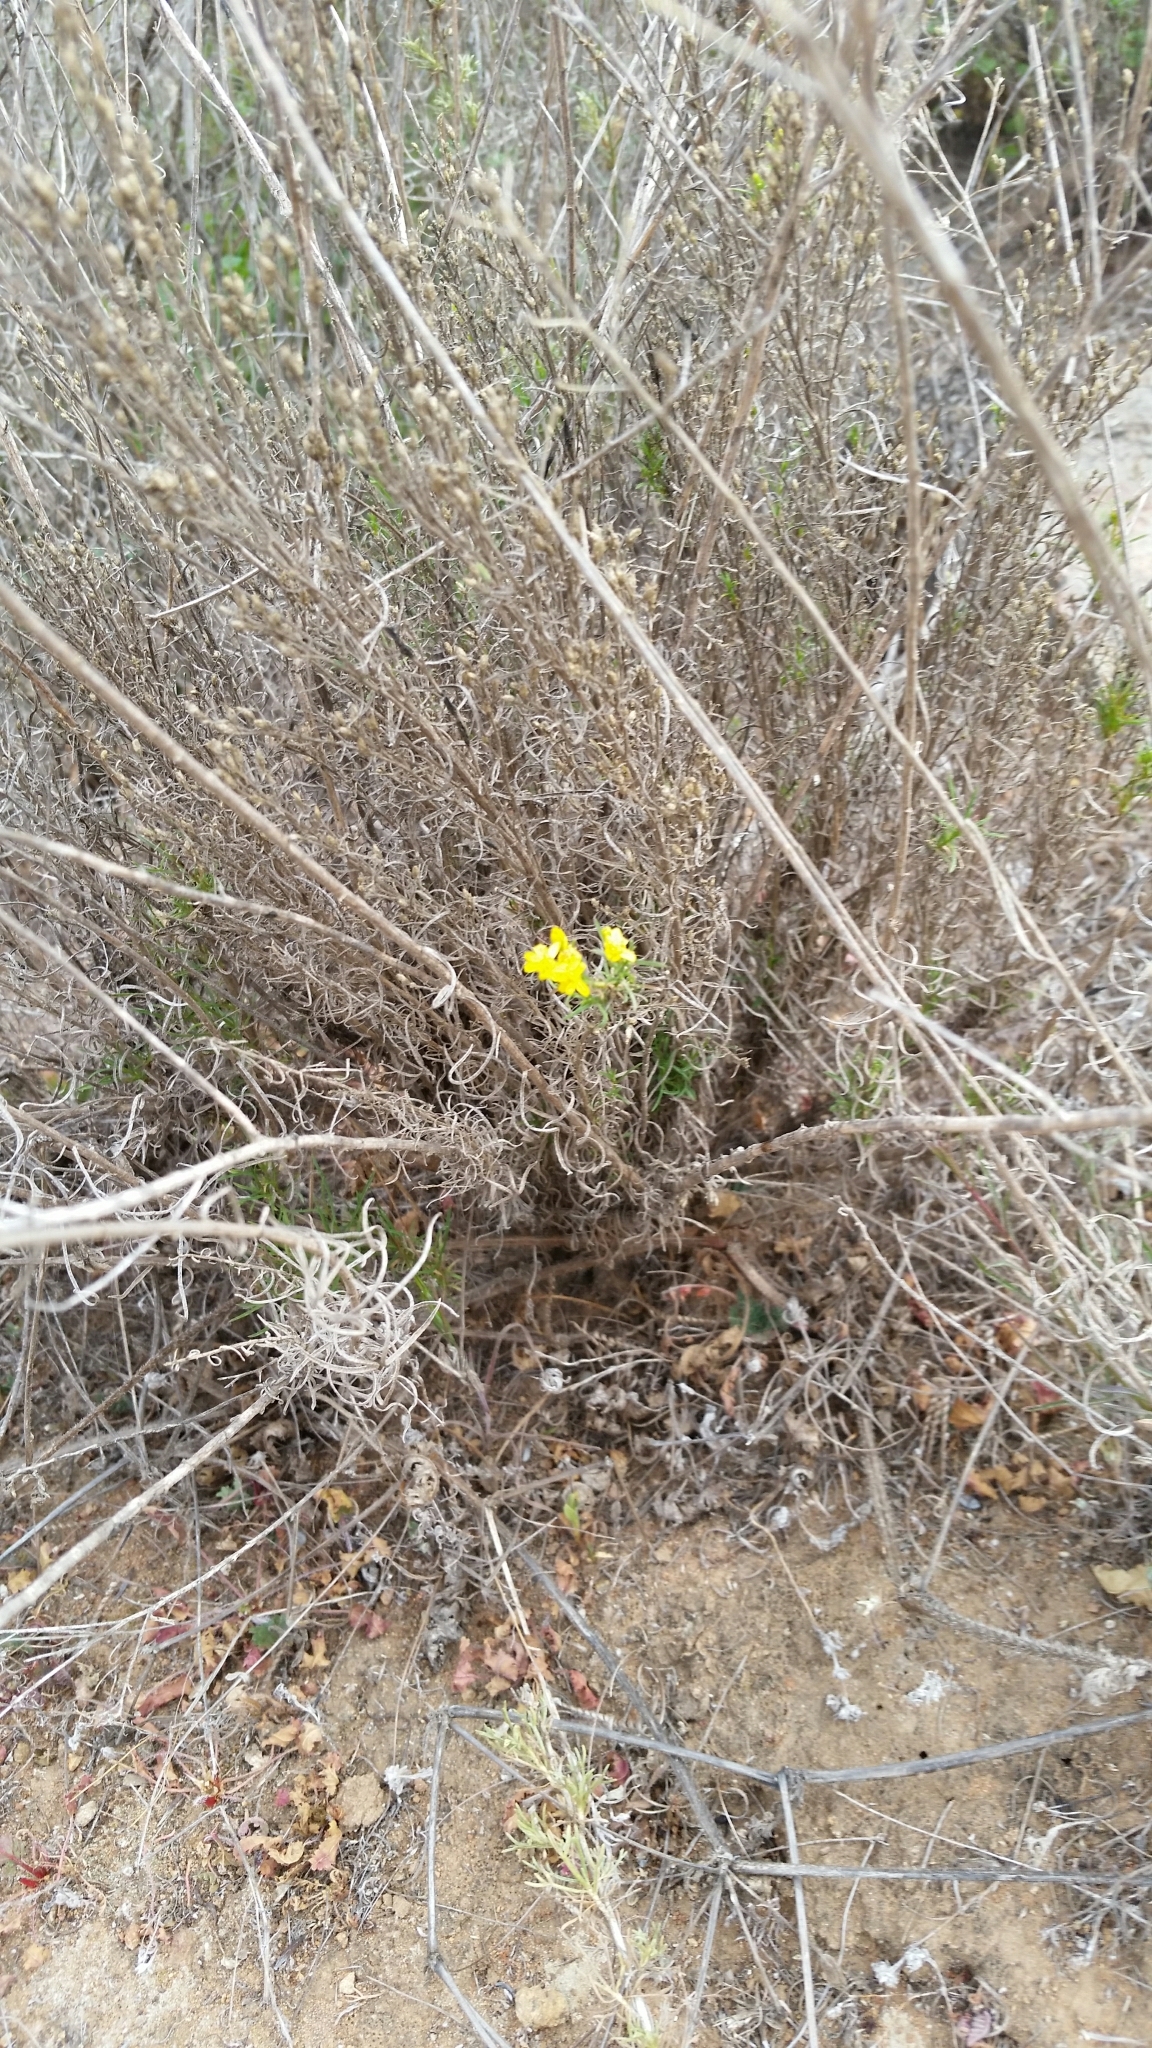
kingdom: Plantae
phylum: Tracheophyta
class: Magnoliopsida
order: Asterales
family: Asteraceae
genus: Gutierrezia
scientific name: Gutierrezia sarothrae
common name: Broom snakeweed
